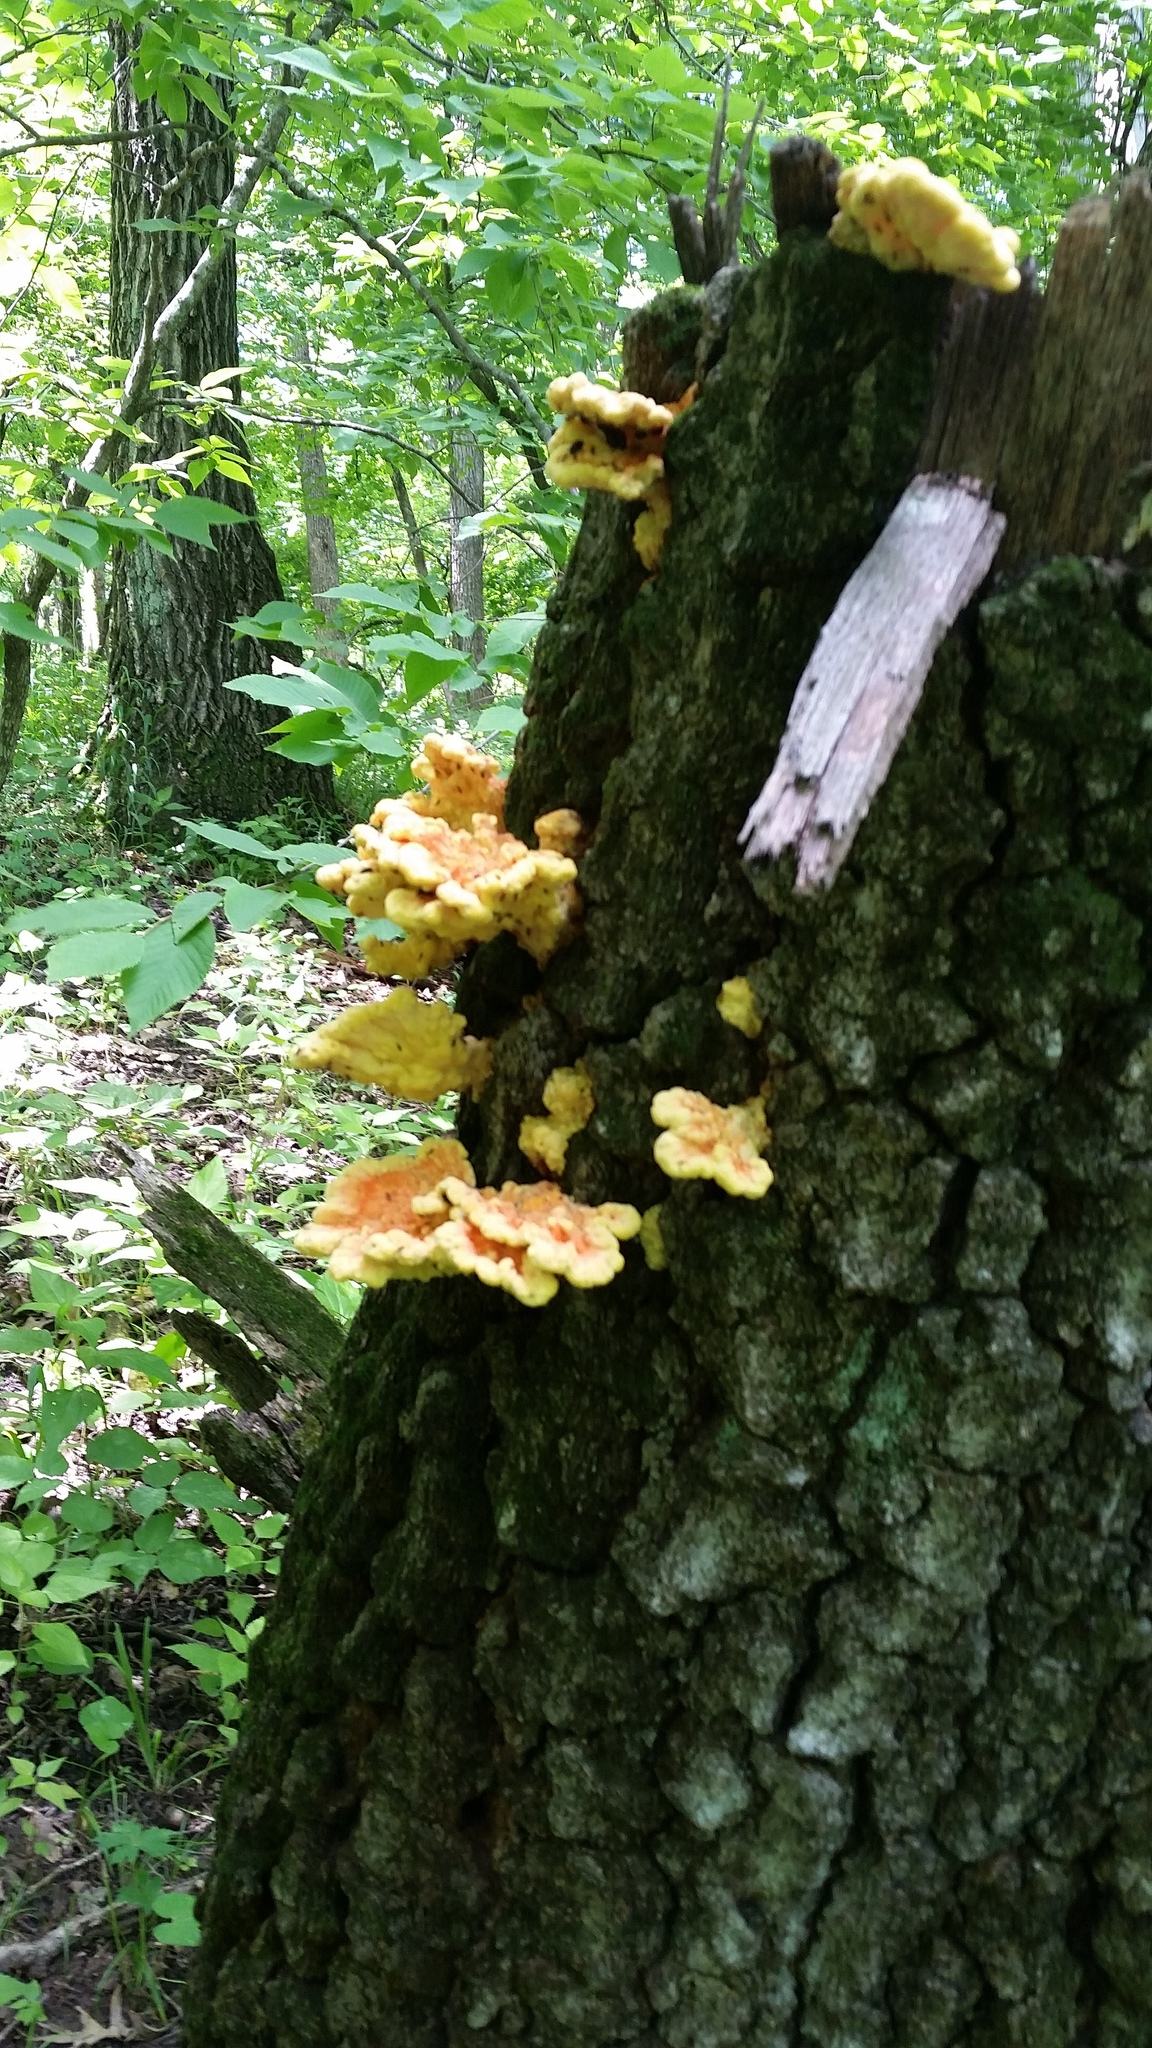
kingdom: Fungi
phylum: Basidiomycota
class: Agaricomycetes
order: Polyporales
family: Laetiporaceae
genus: Laetiporus
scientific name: Laetiporus sulphureus
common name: Chicken of the woods
